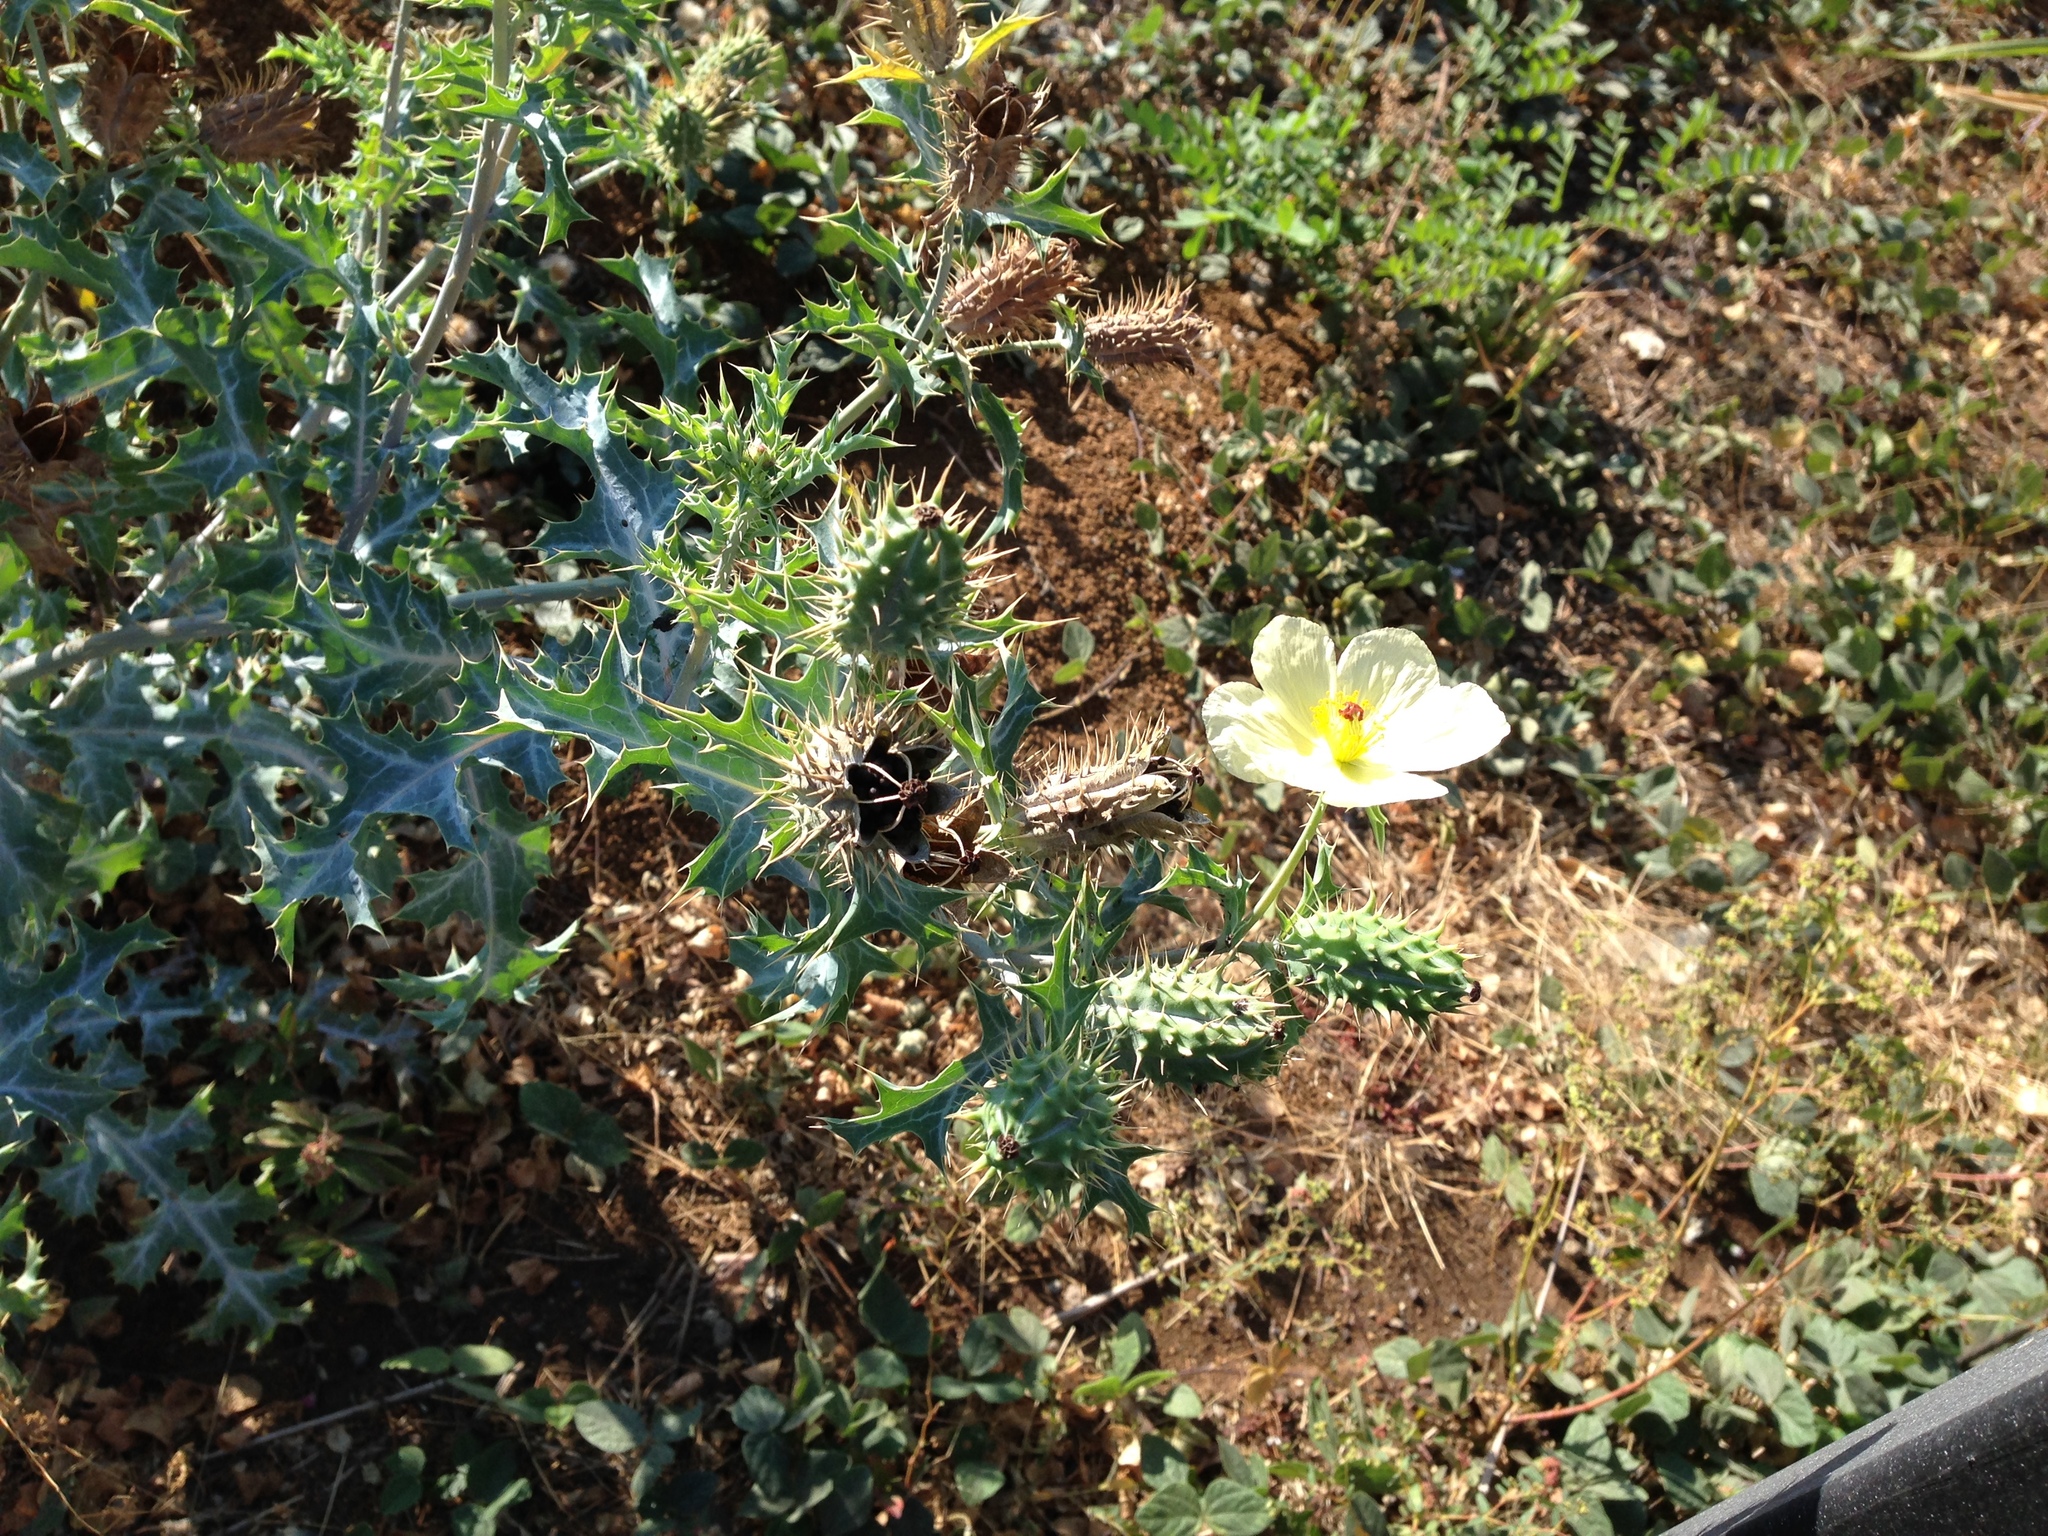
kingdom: Plantae
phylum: Tracheophyta
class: Magnoliopsida
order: Ranunculales
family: Papaveraceae
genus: Argemone
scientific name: Argemone mexicana
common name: Mexican poppy
